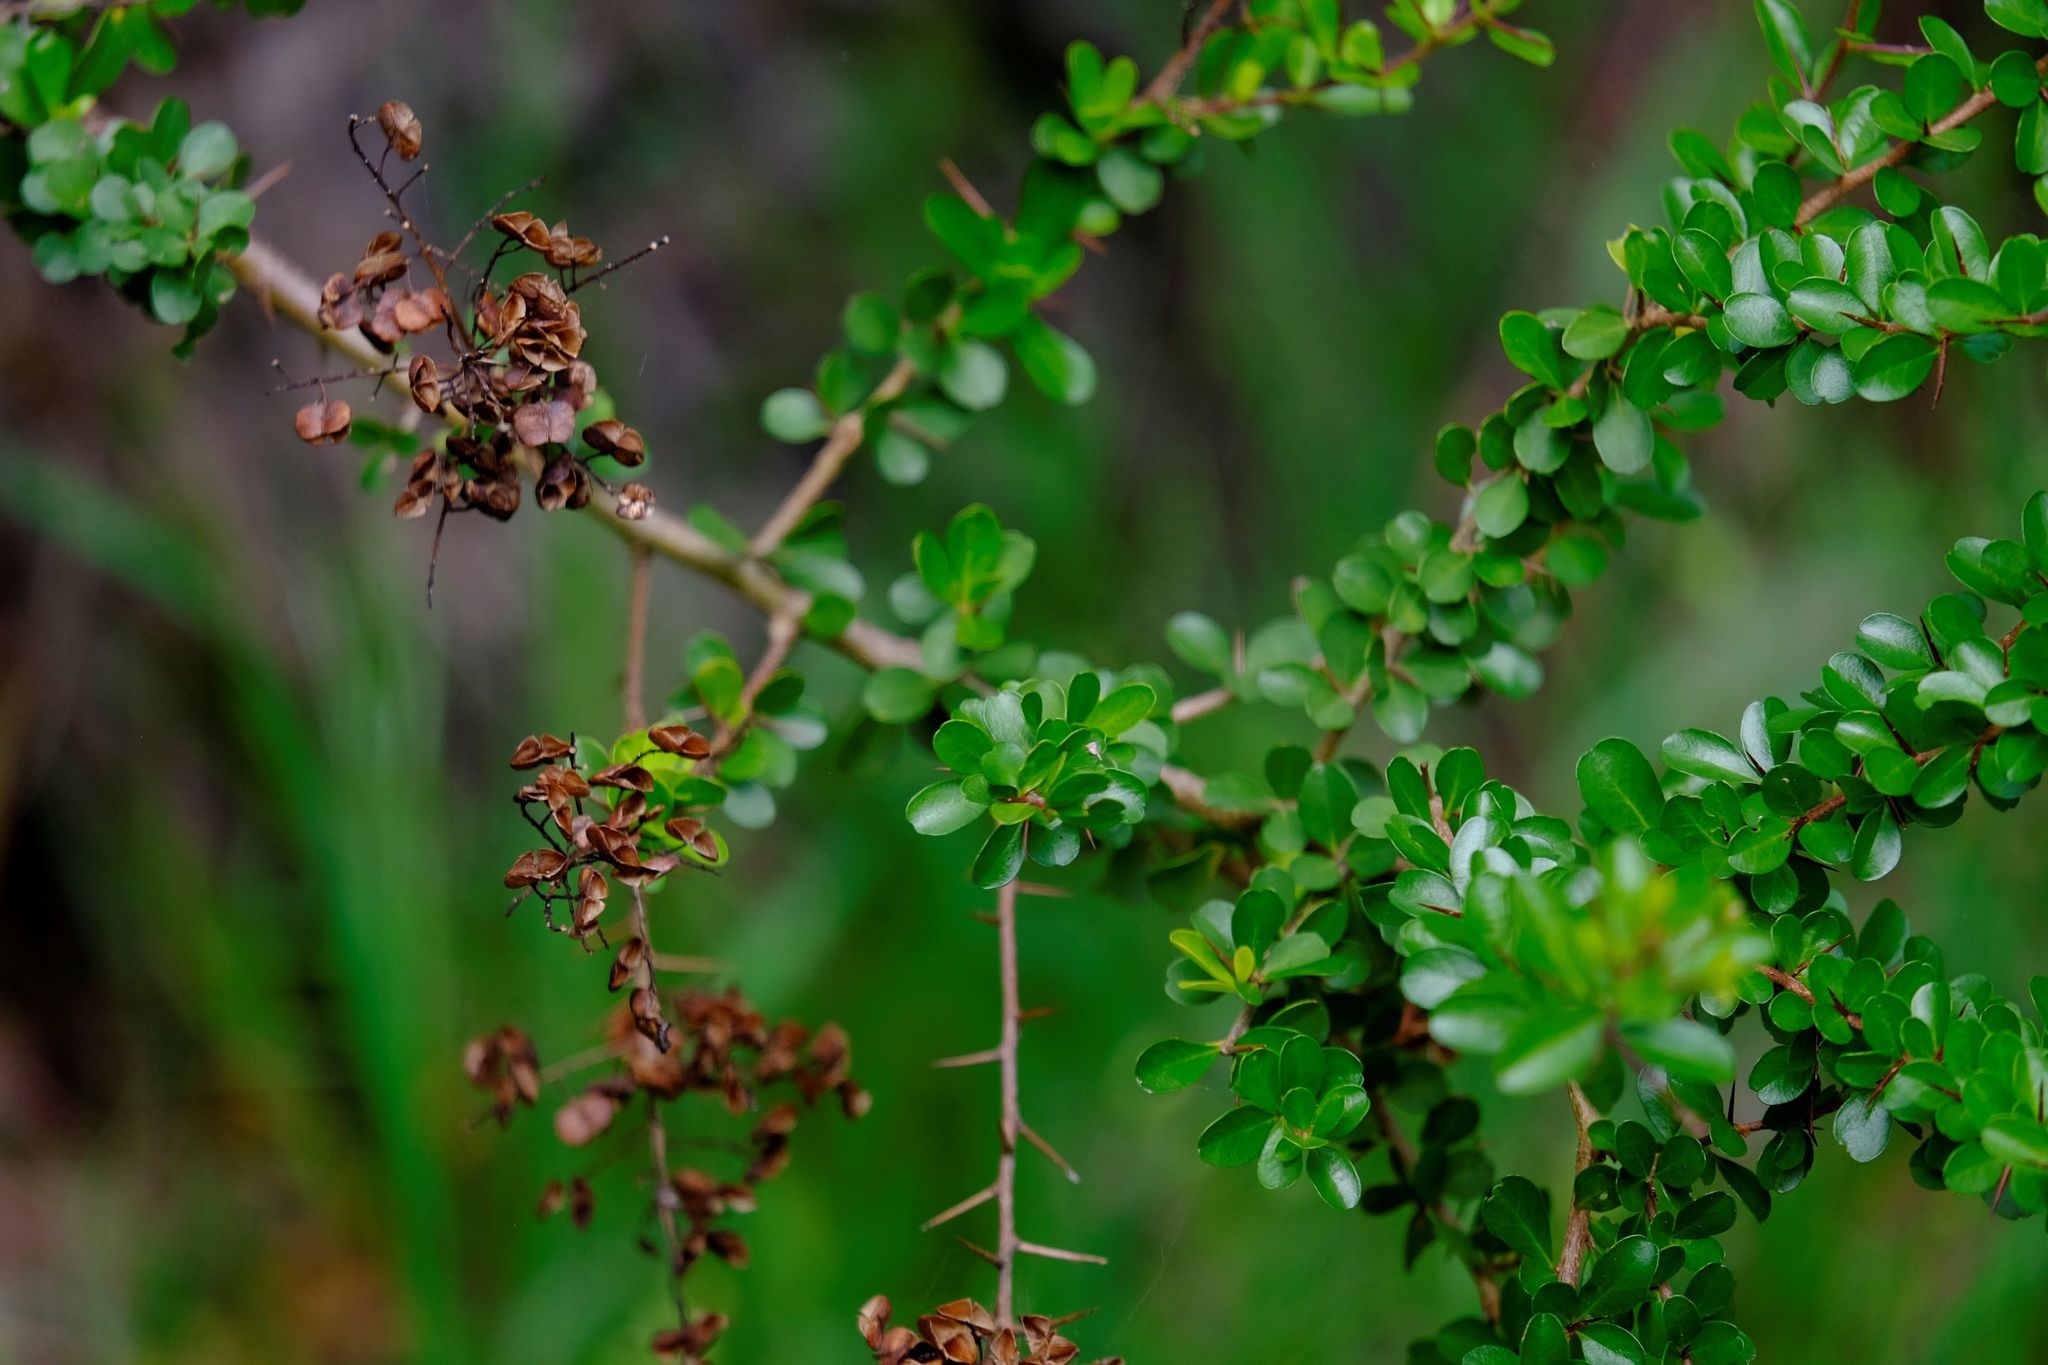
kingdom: Plantae
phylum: Tracheophyta
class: Magnoliopsida
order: Apiales
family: Pittosporaceae
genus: Bursaria
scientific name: Bursaria spinosa
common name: Australian blackthorn
